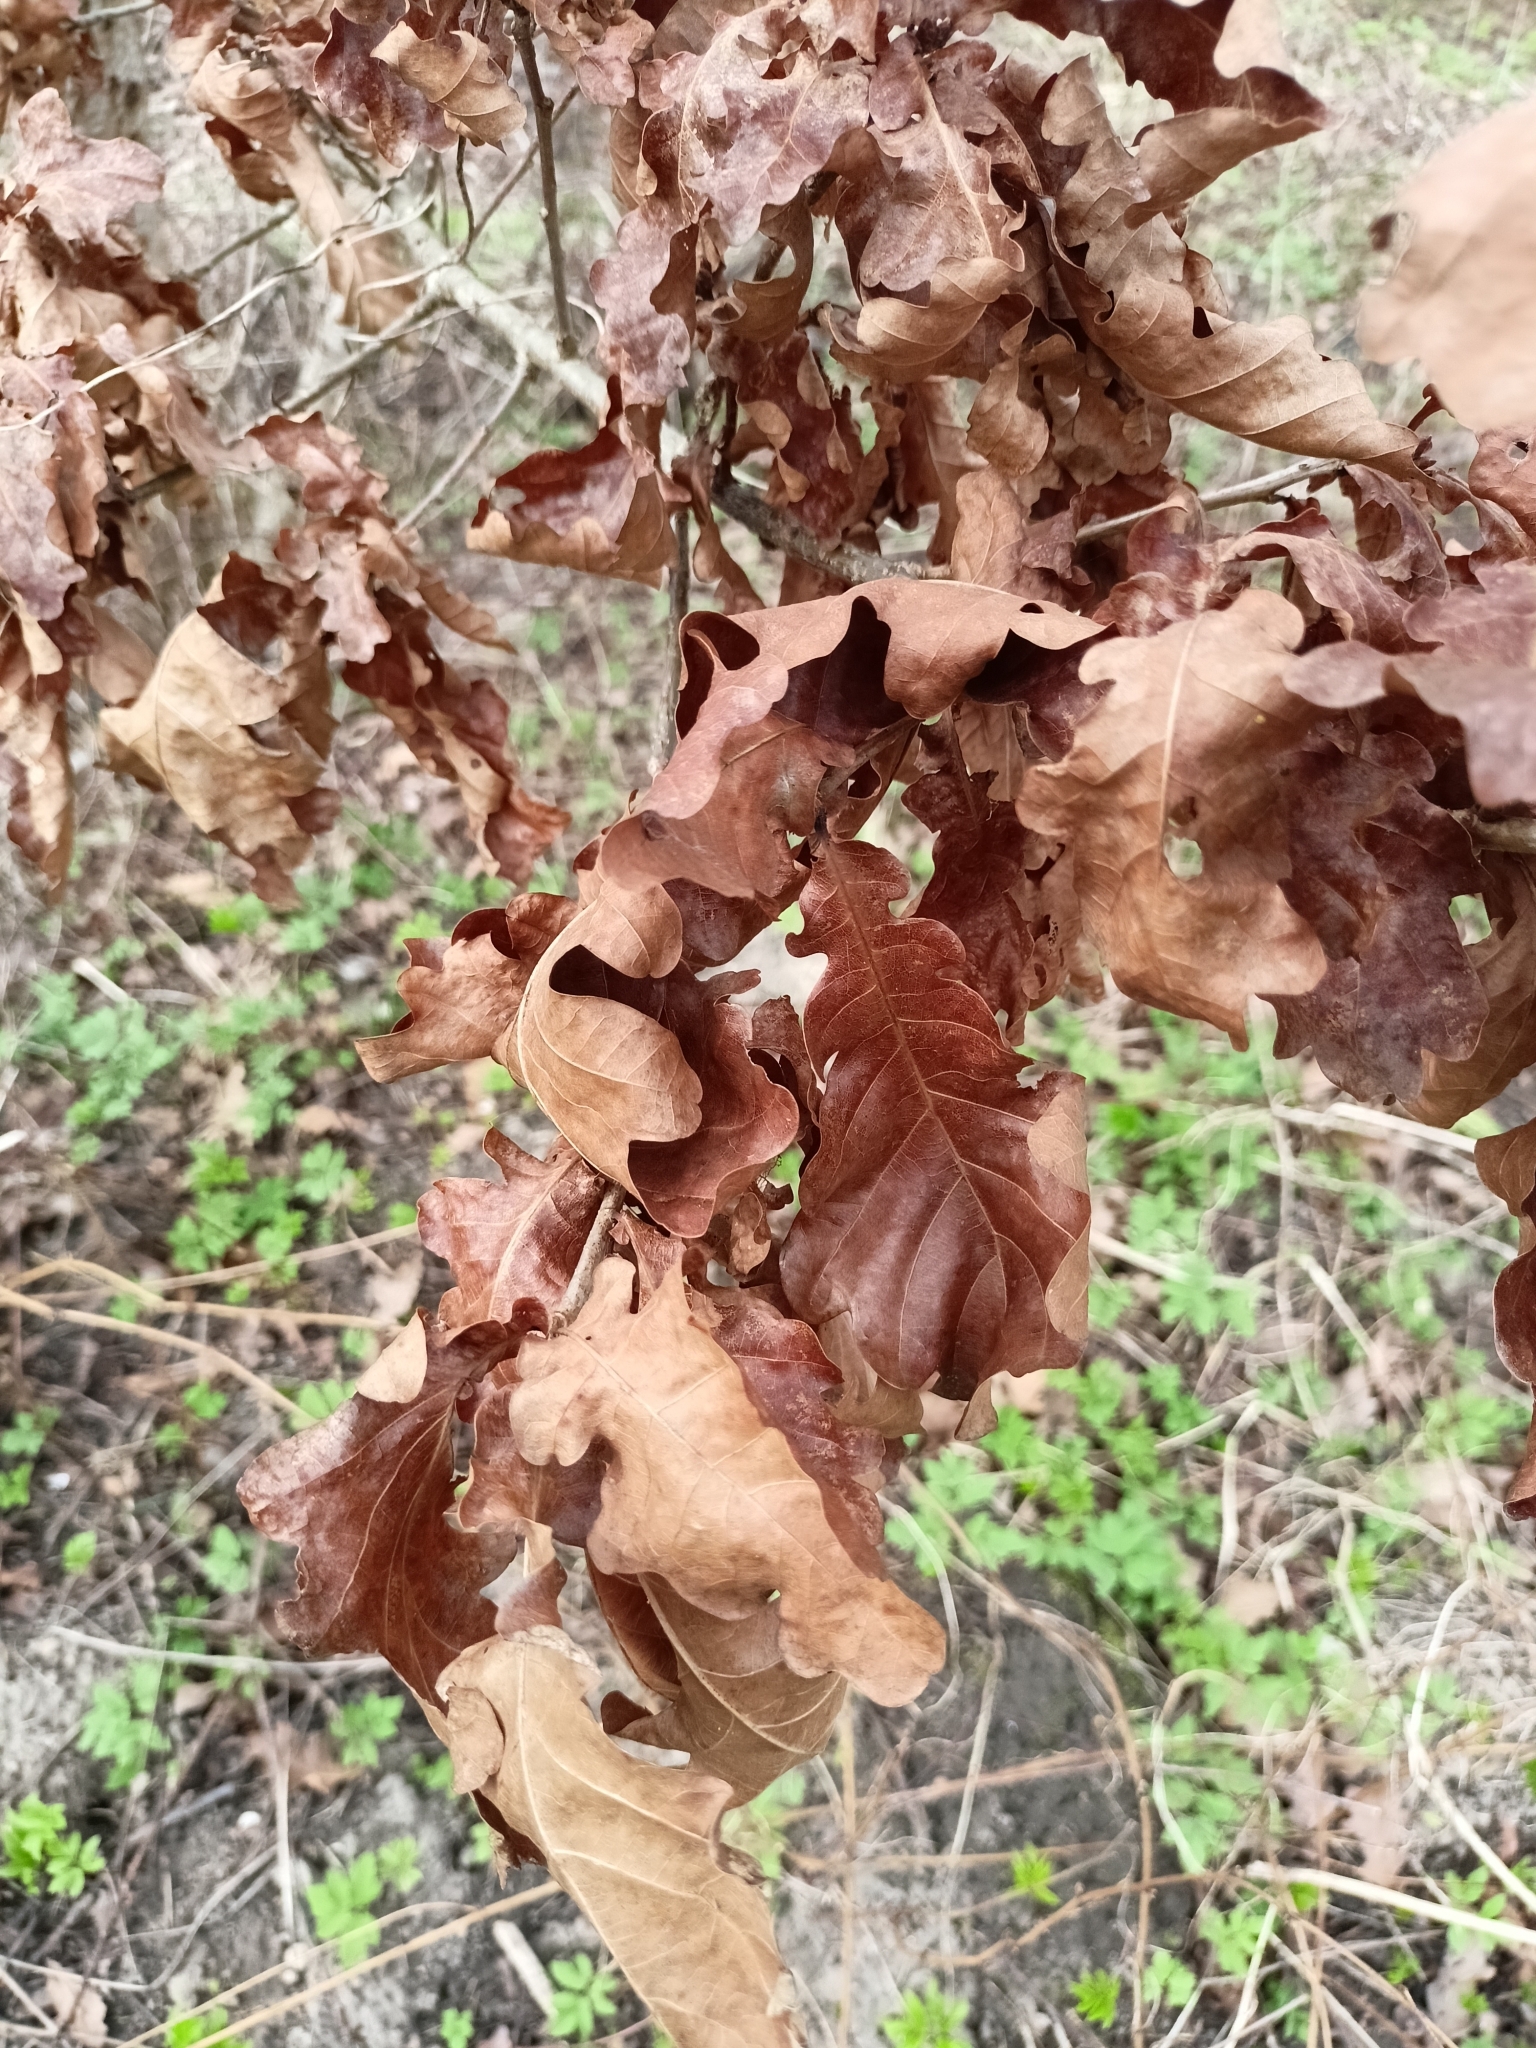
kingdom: Plantae
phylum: Tracheophyta
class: Magnoliopsida
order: Fagales
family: Fagaceae
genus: Quercus
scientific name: Quercus robur
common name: Pedunculate oak
